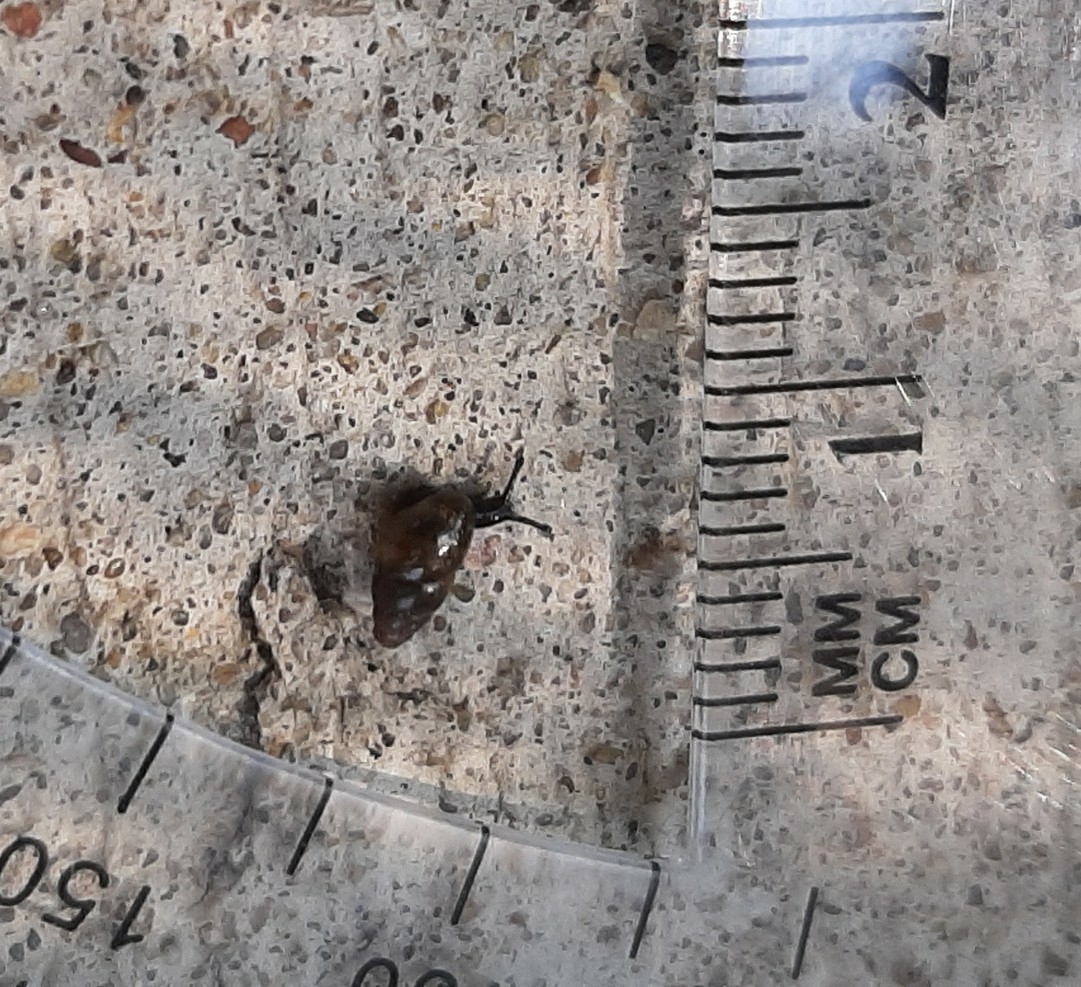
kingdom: Animalia
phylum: Mollusca
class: Gastropoda
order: Stylommatophora
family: Cochlicopidae
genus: Cochlicopa
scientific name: Cochlicopa lubrica
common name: Glossy pillar snail
